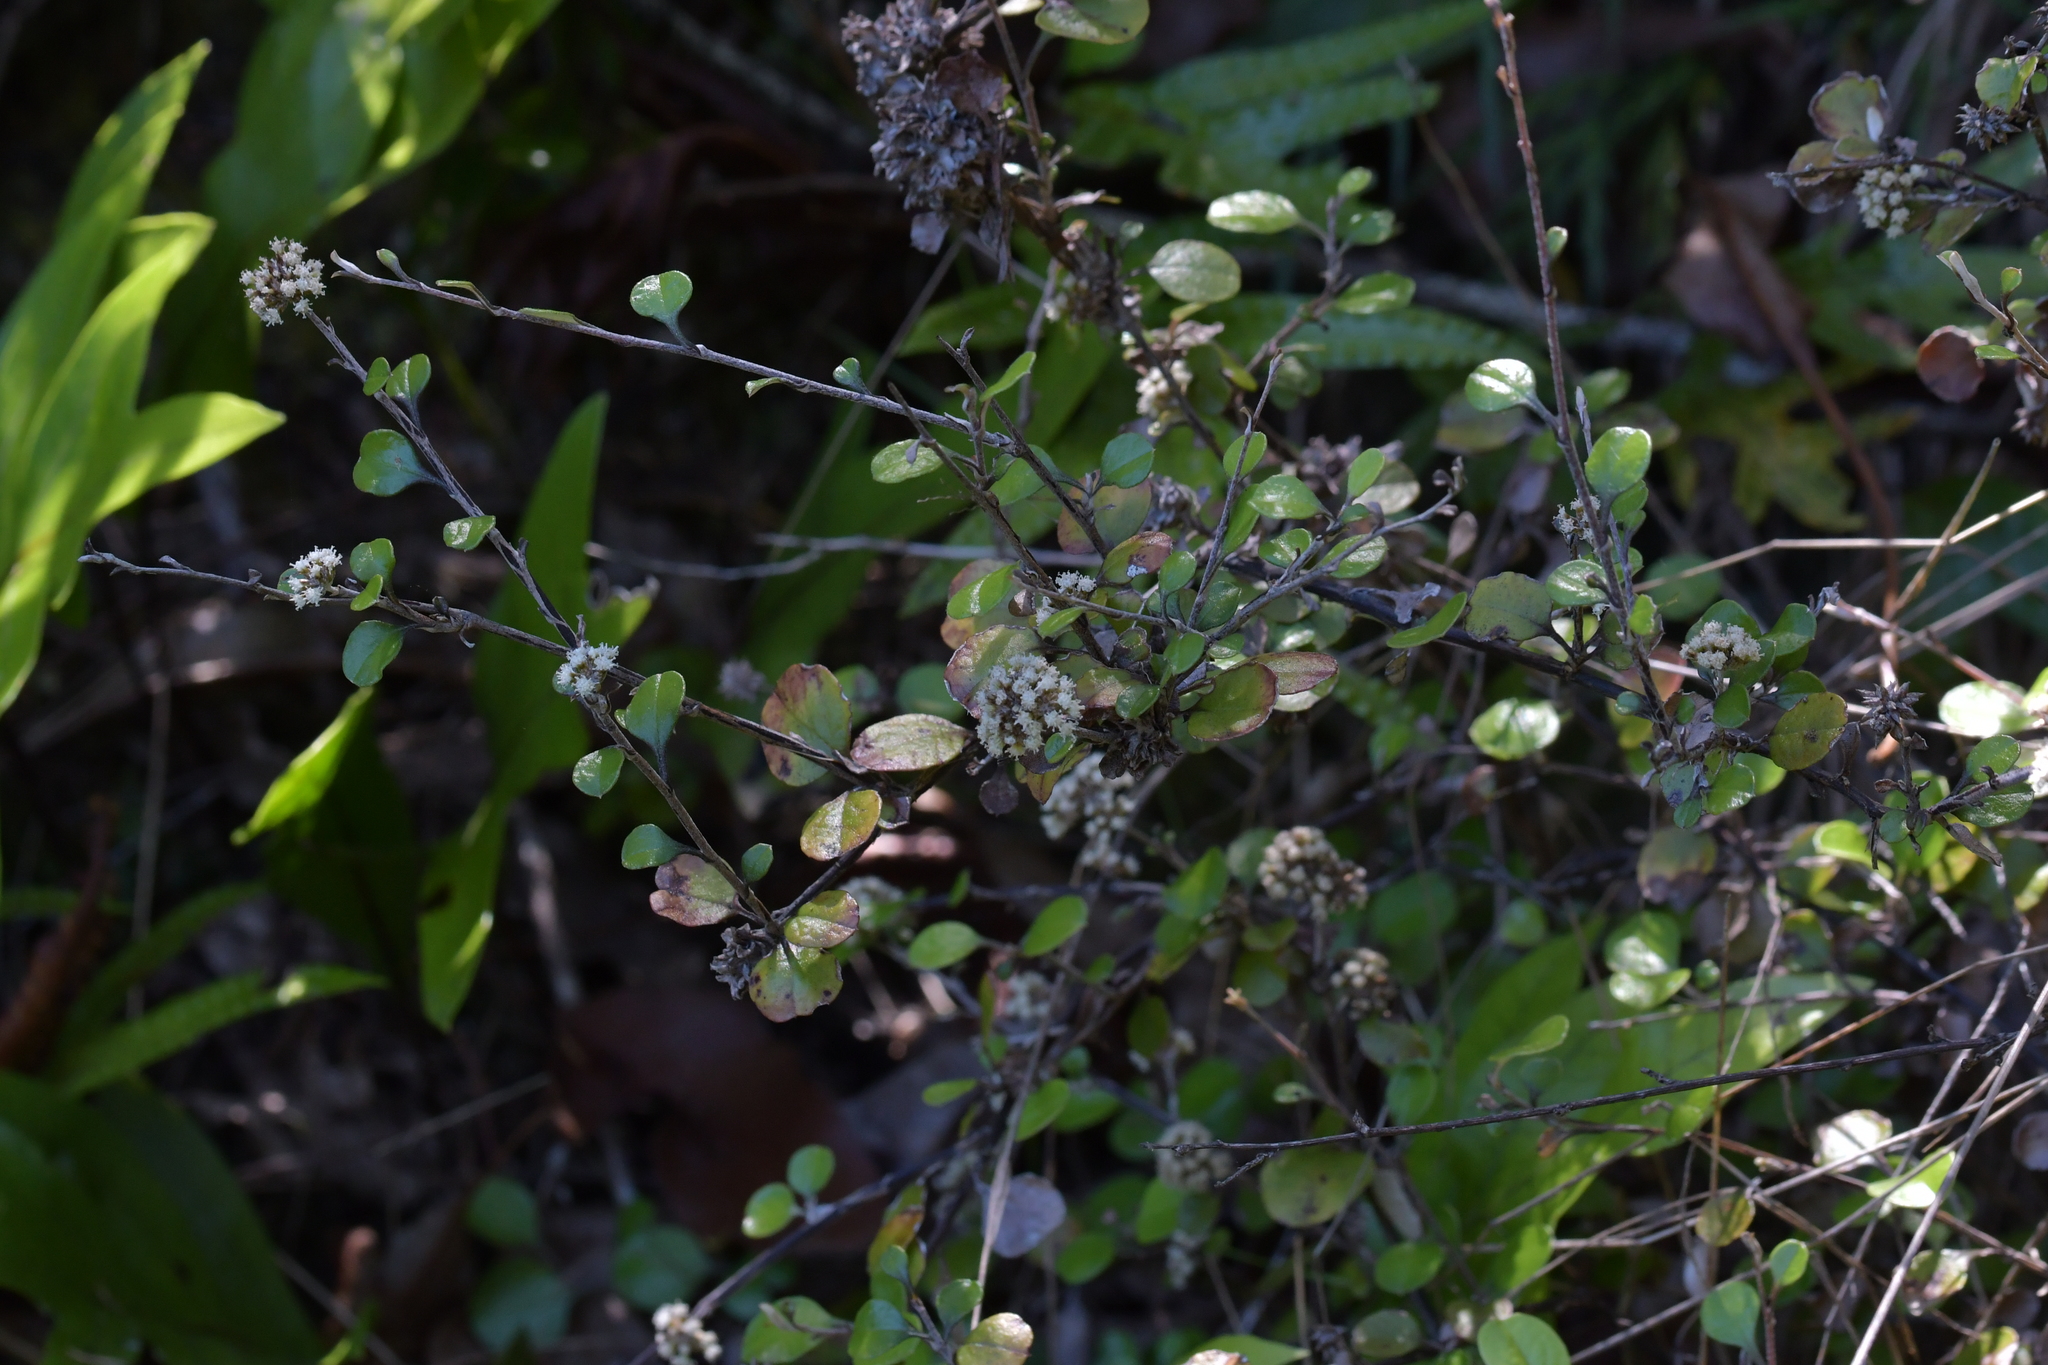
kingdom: Plantae
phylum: Tracheophyta
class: Magnoliopsida
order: Asterales
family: Asteraceae
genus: Ozothamnus
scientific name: Ozothamnus glomeratus
